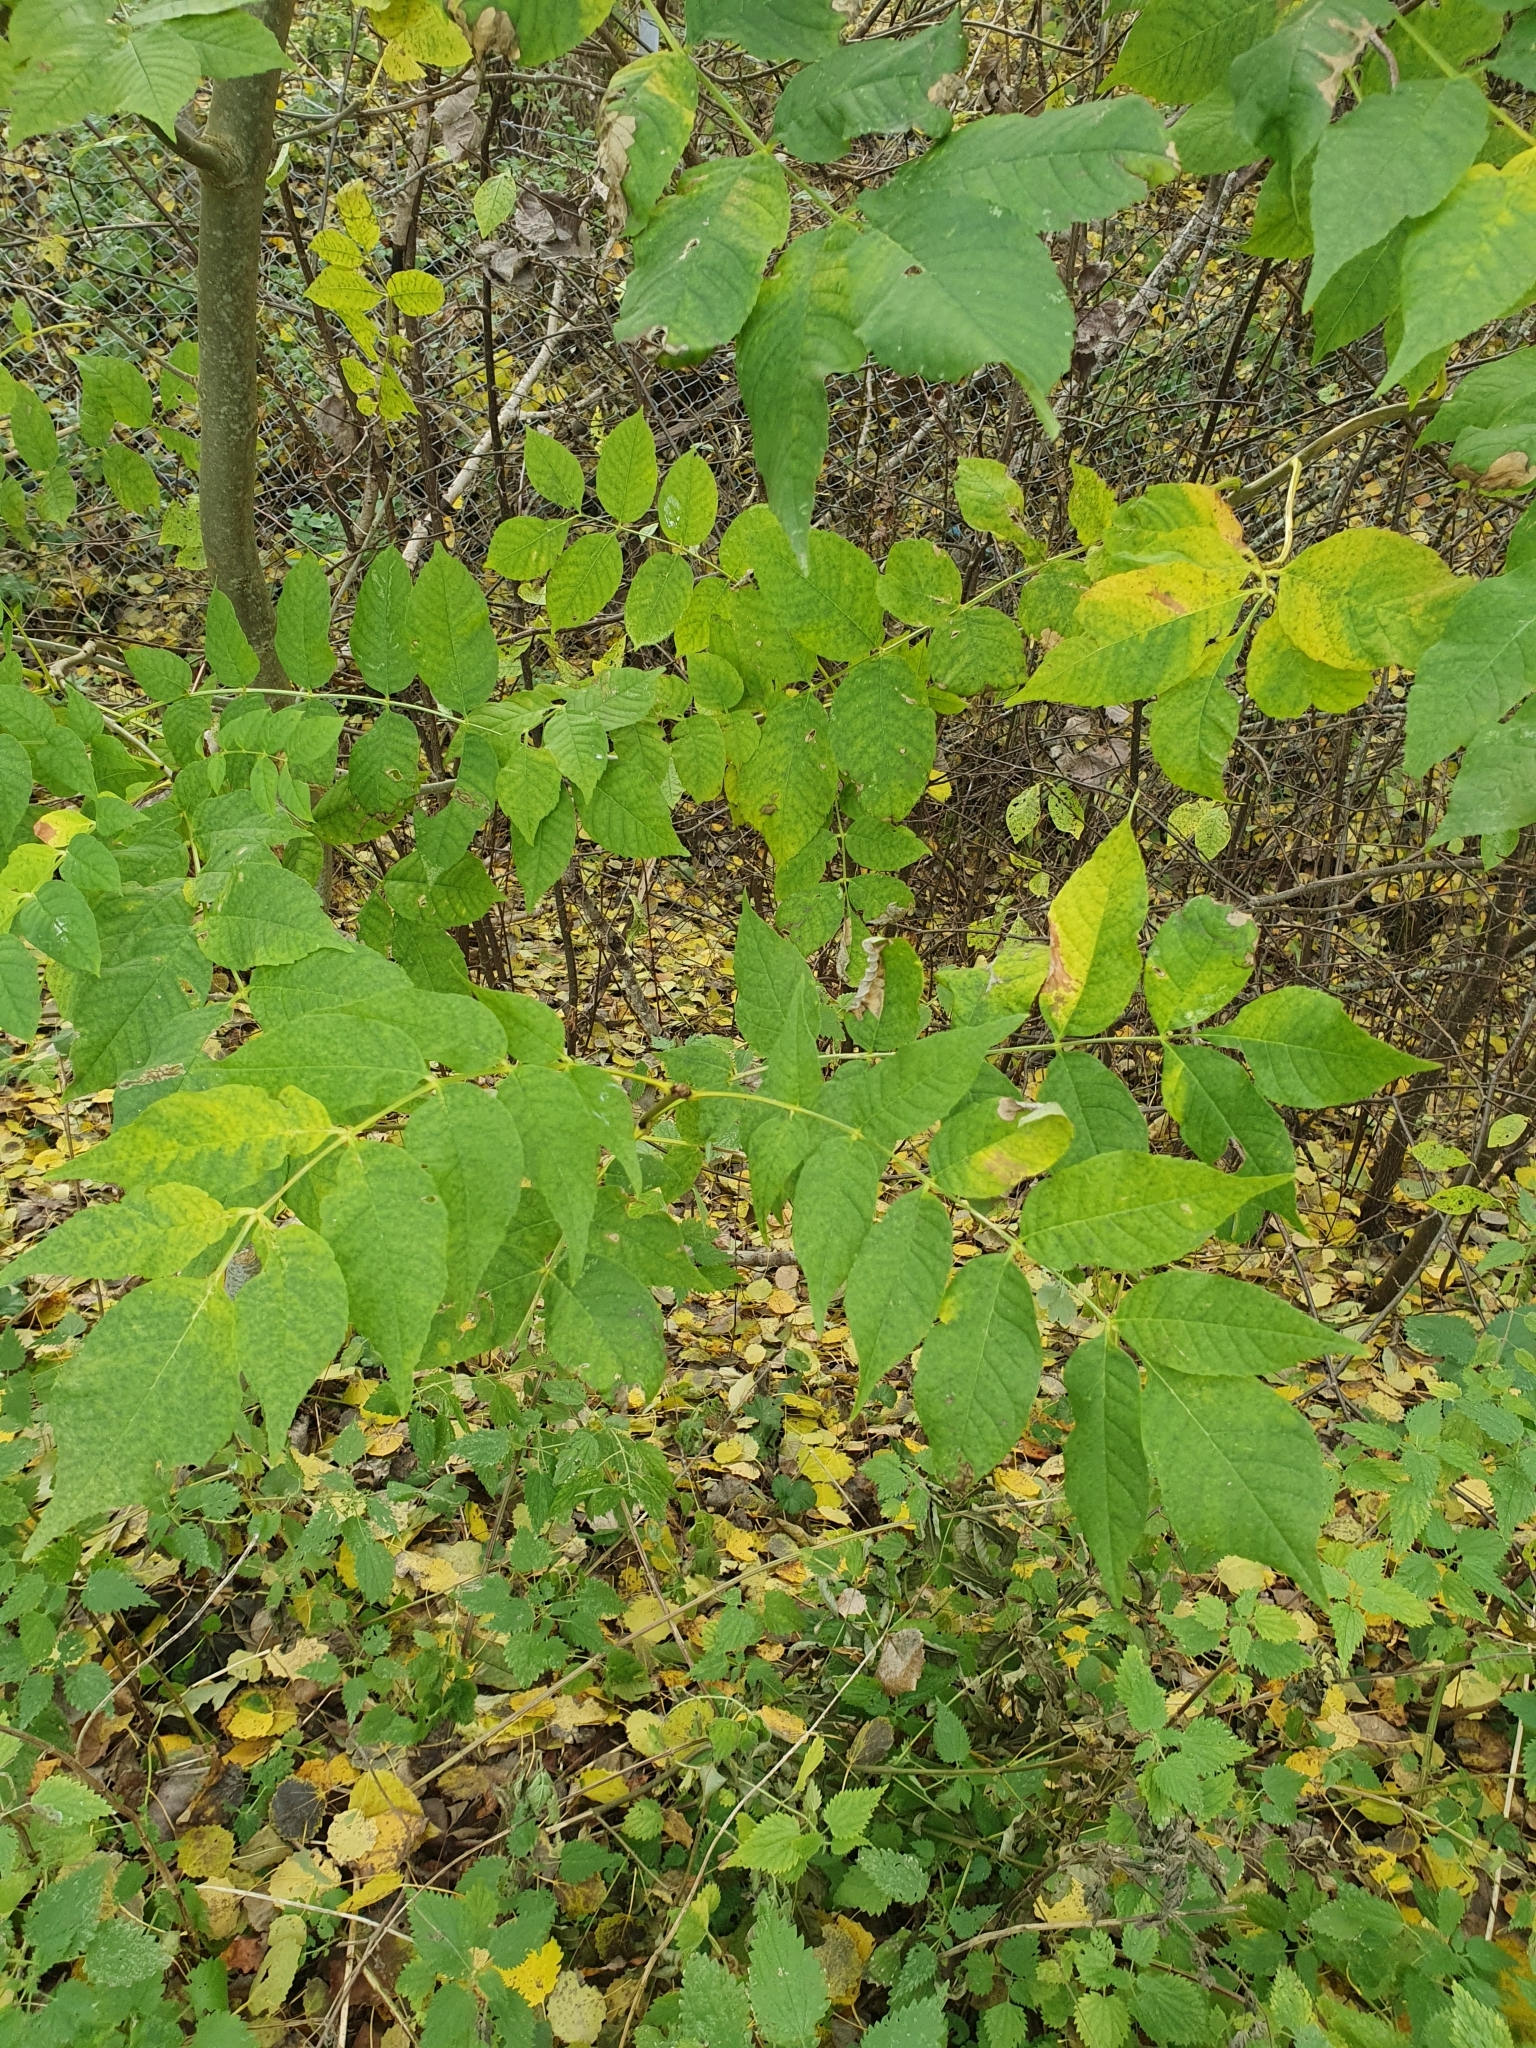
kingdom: Plantae
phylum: Tracheophyta
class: Magnoliopsida
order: Lamiales
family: Oleaceae
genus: Fraxinus
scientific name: Fraxinus excelsior
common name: European ash
